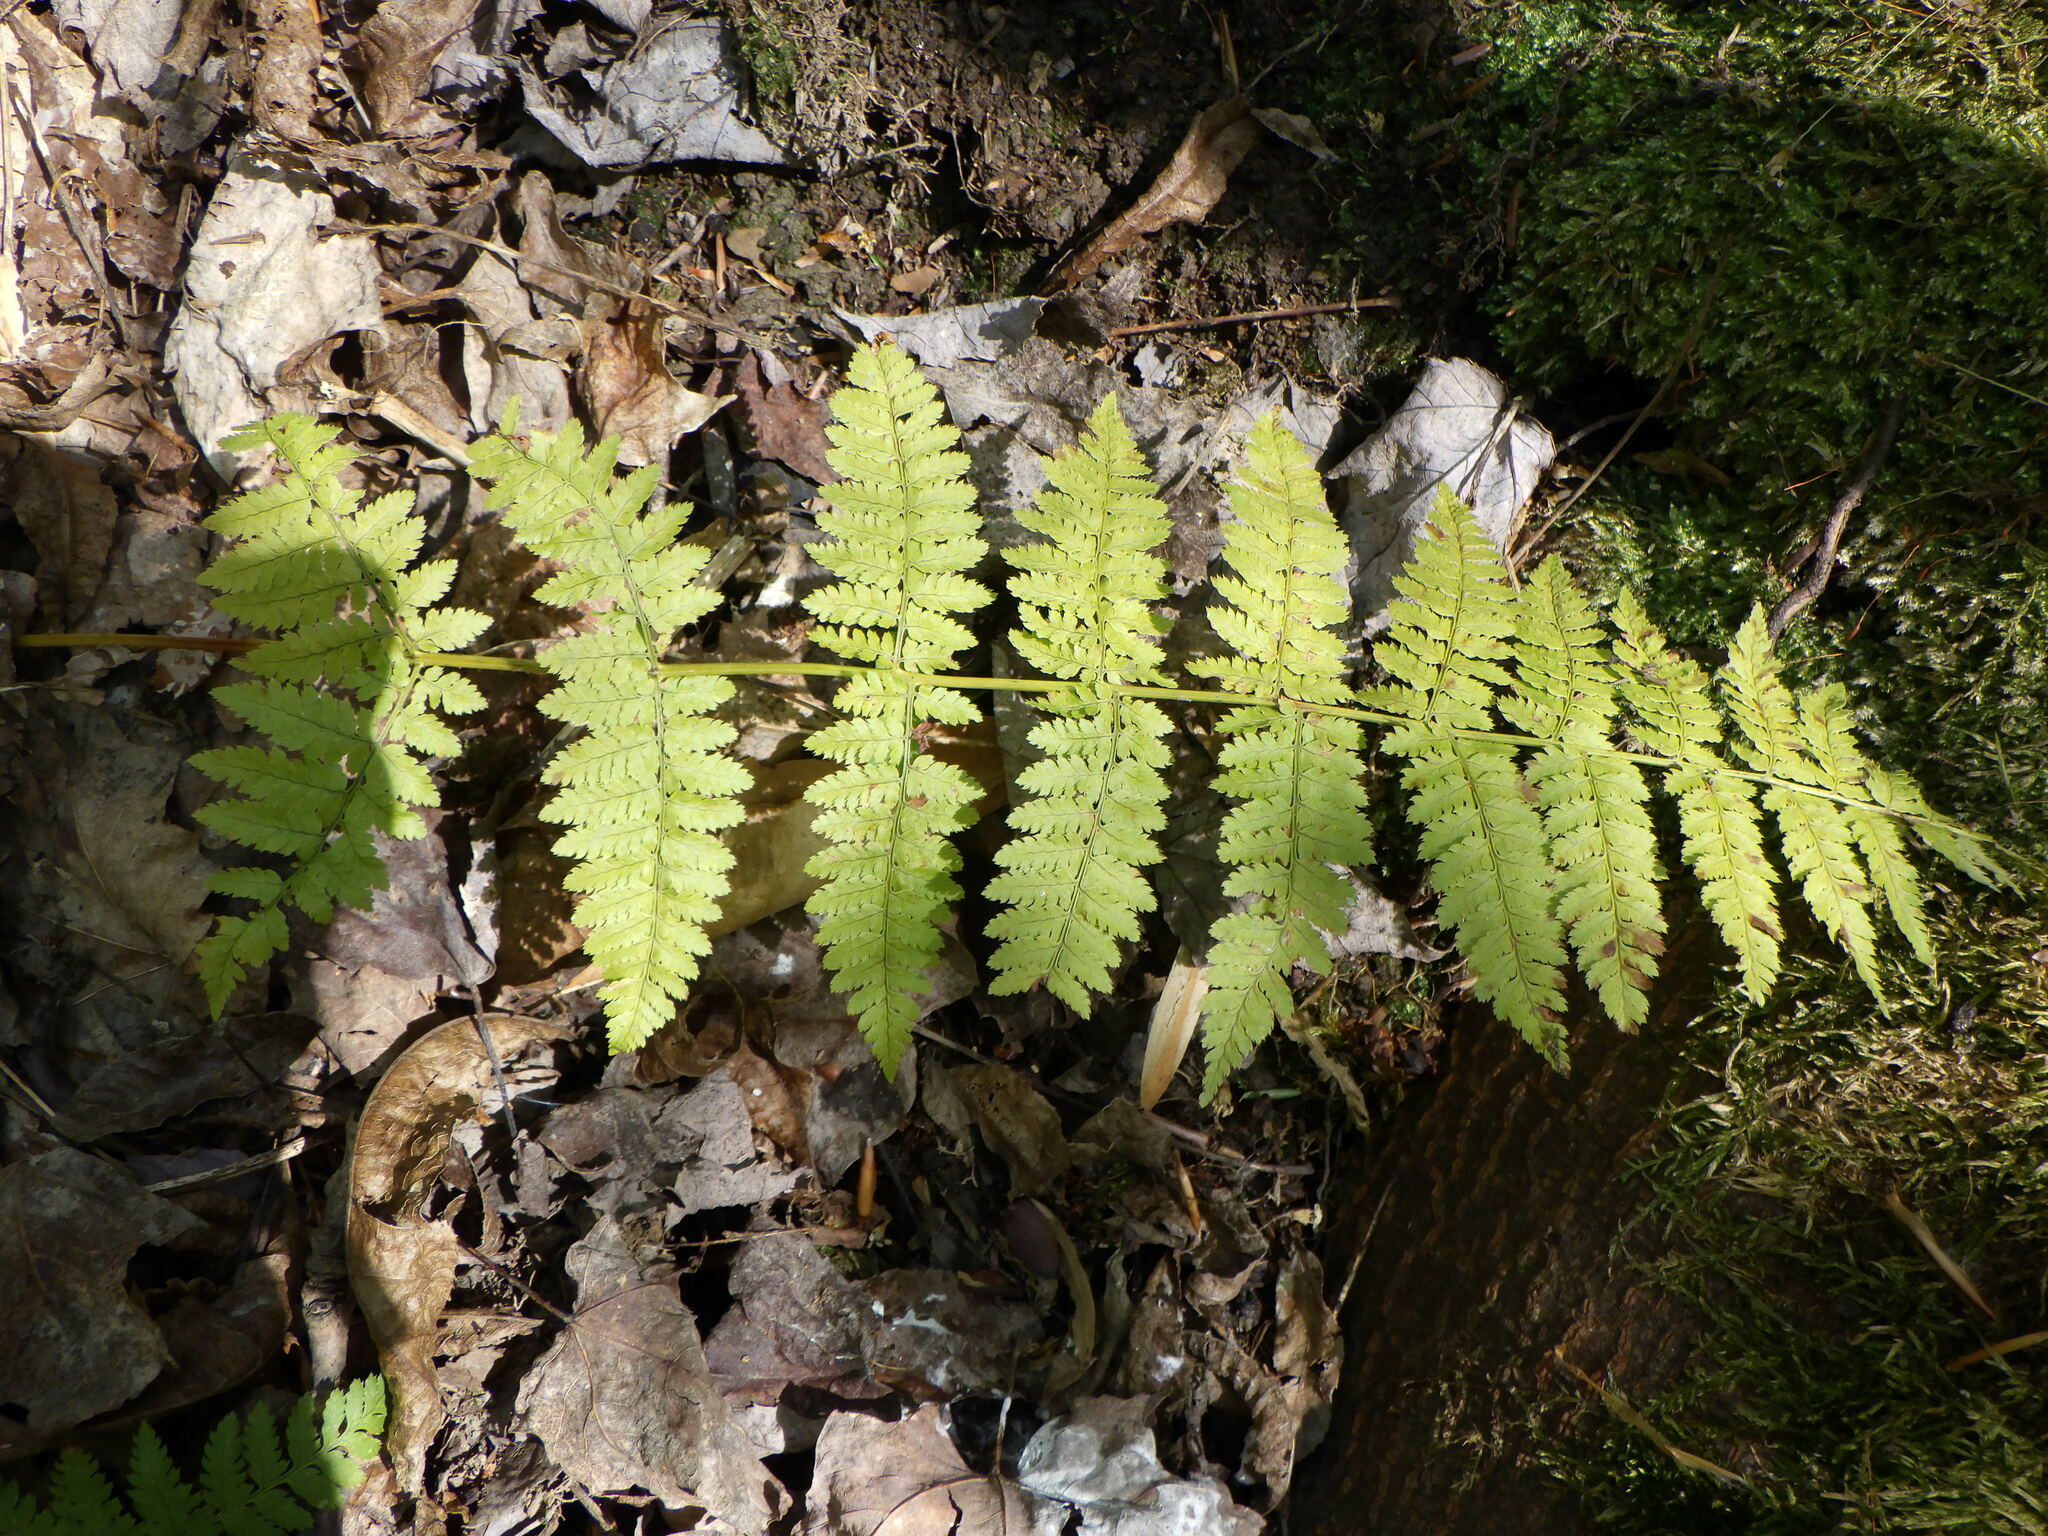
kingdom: Plantae
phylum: Tracheophyta
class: Polypodiopsida
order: Polypodiales
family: Dryopteridaceae
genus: Dryopteris
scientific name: Dryopteris intermedia
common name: Evergreen wood fern
